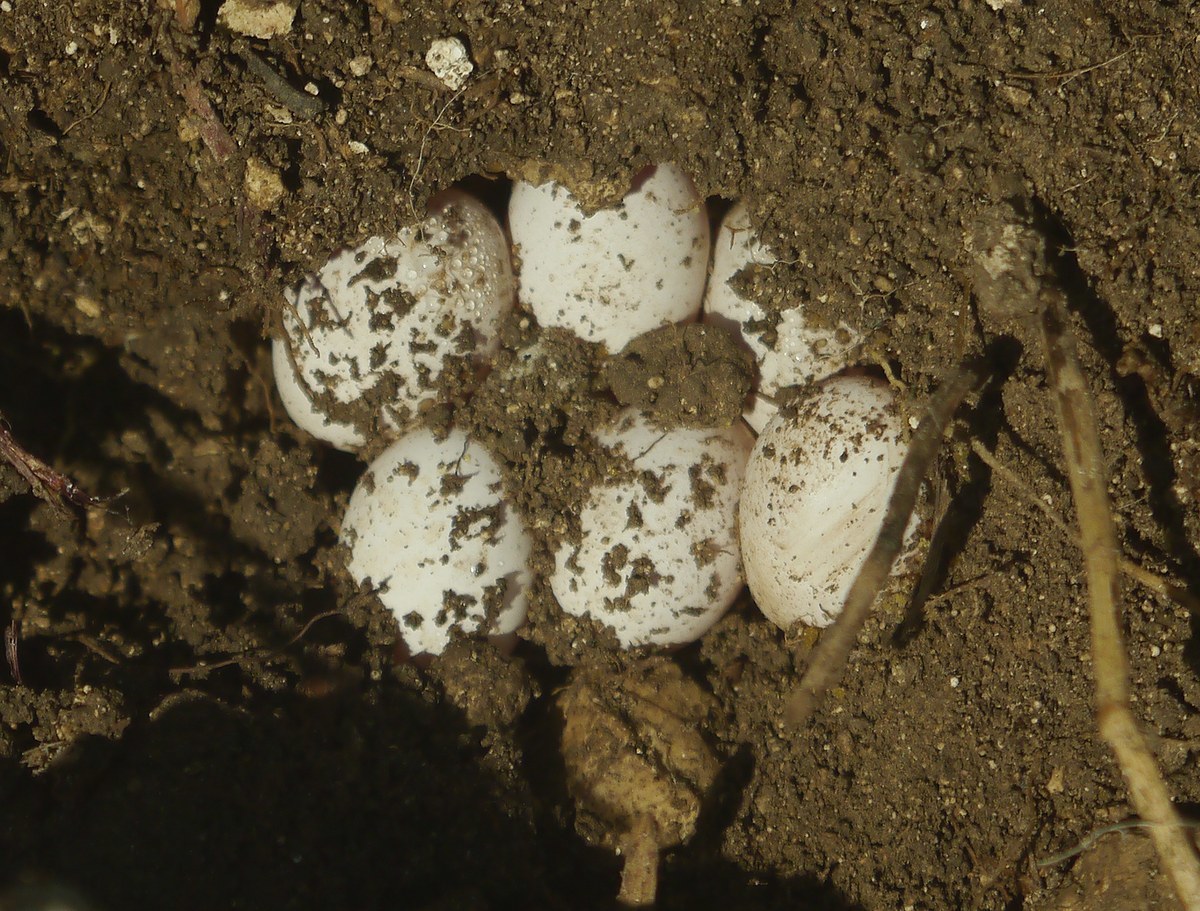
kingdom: Animalia
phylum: Chordata
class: Squamata
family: Lacertidae
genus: Lacerta
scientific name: Lacerta agilis
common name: Sand lizard
